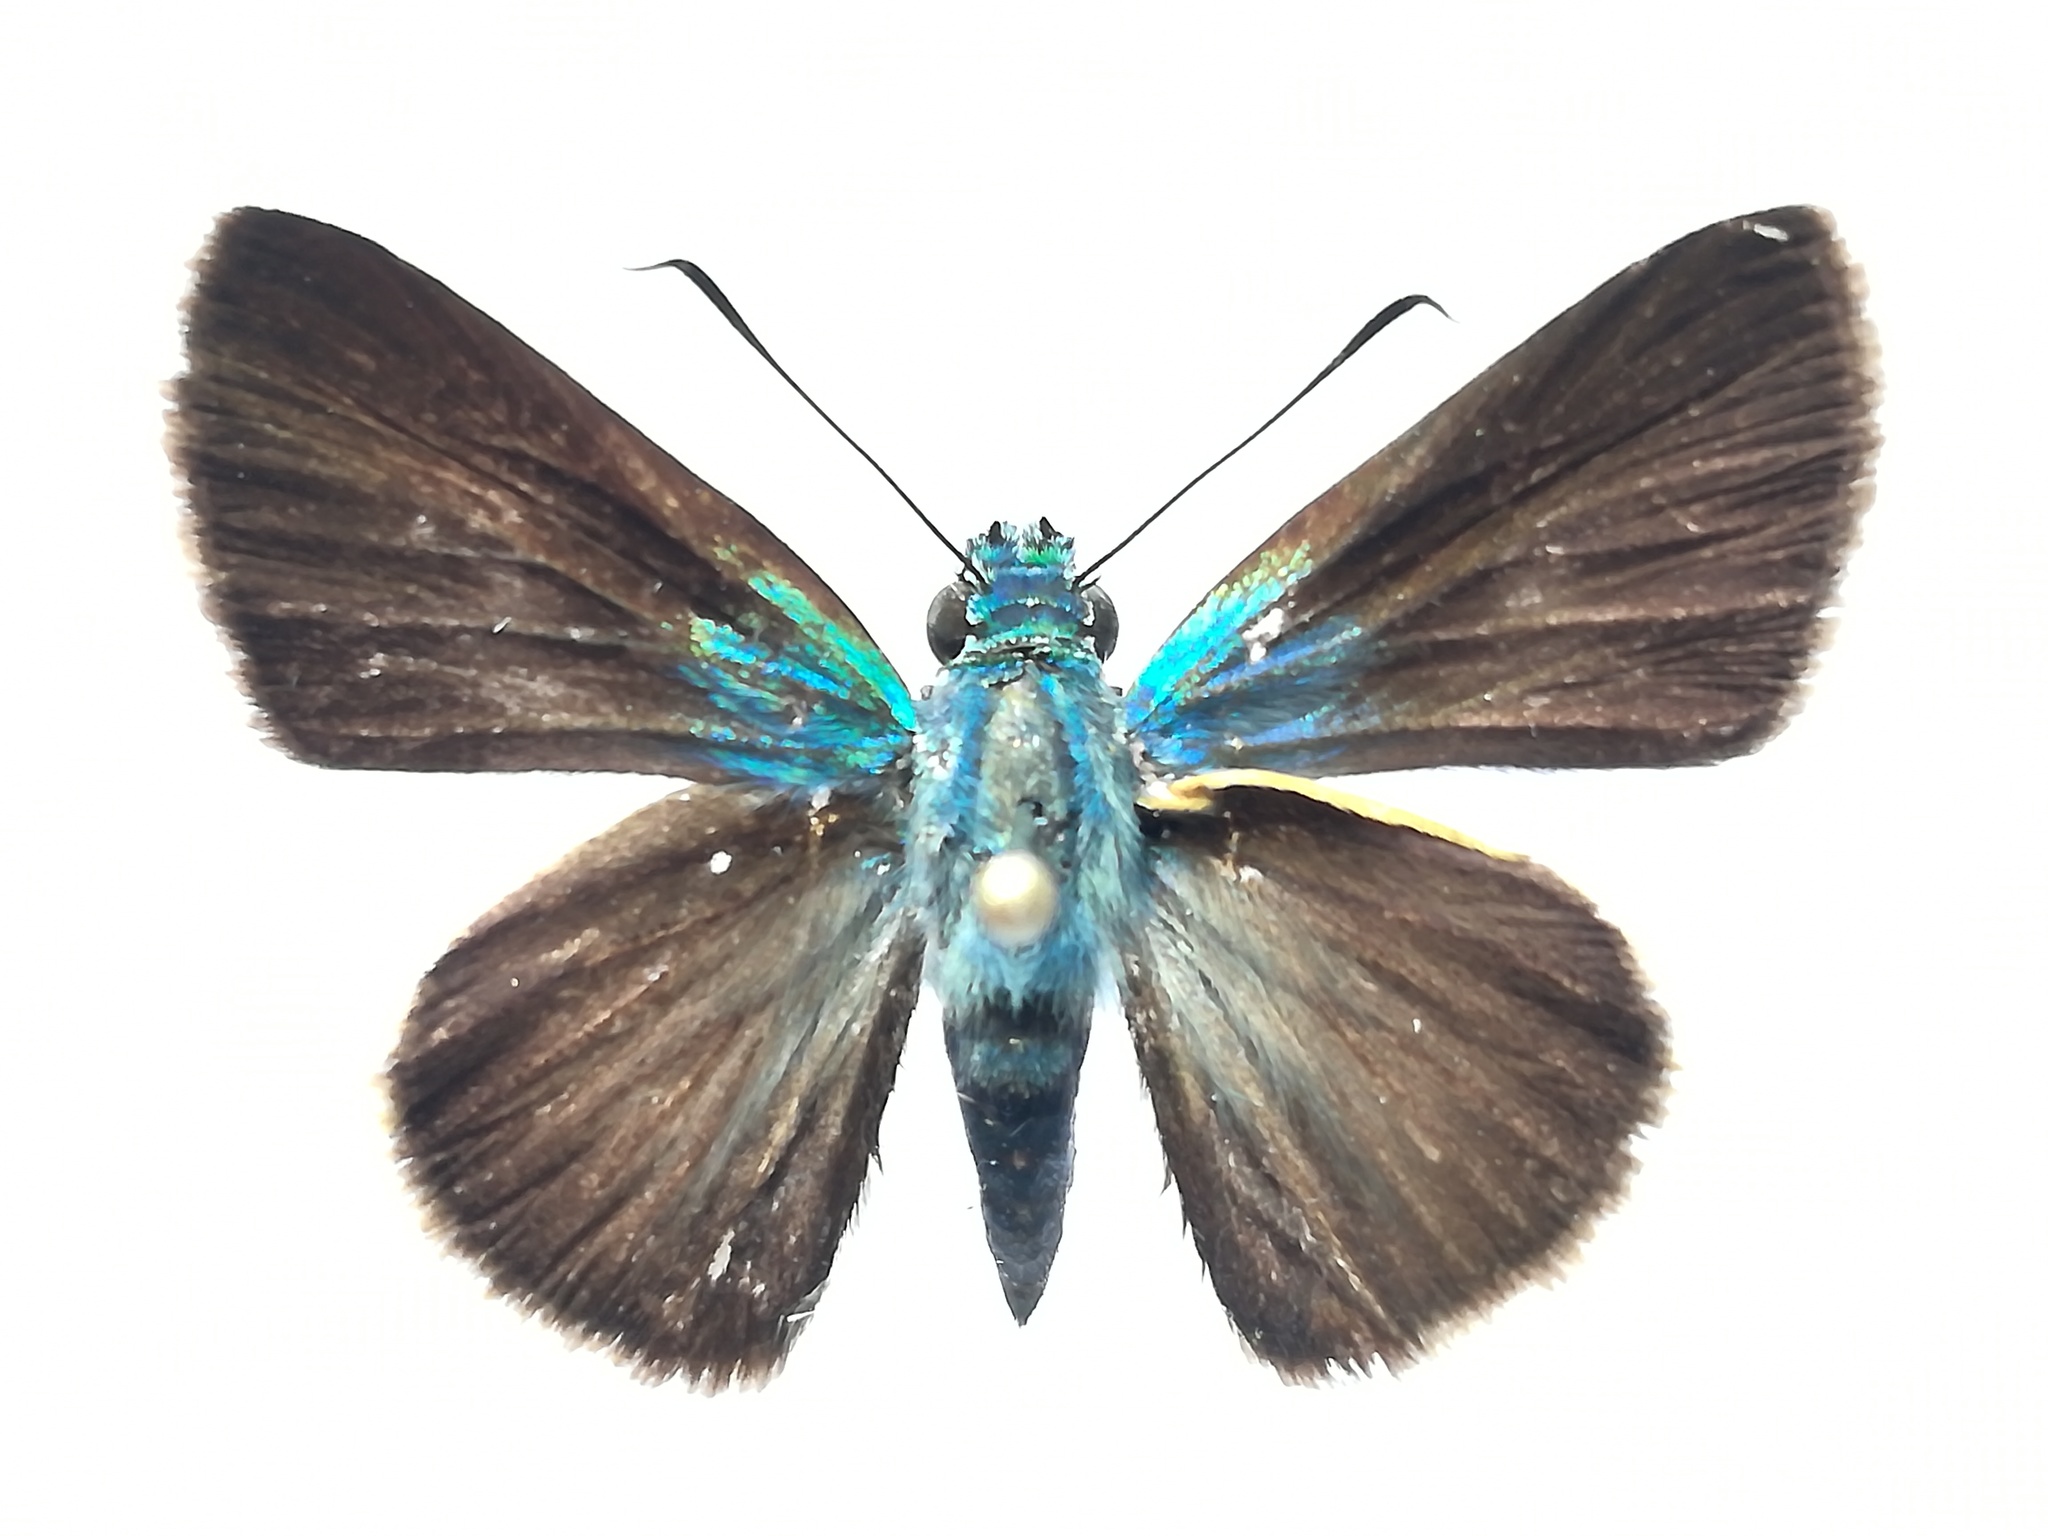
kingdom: Animalia
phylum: Arthropoda
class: Insecta
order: Lepidoptera
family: Hesperiidae
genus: Onophas
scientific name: Onophas columbaria
